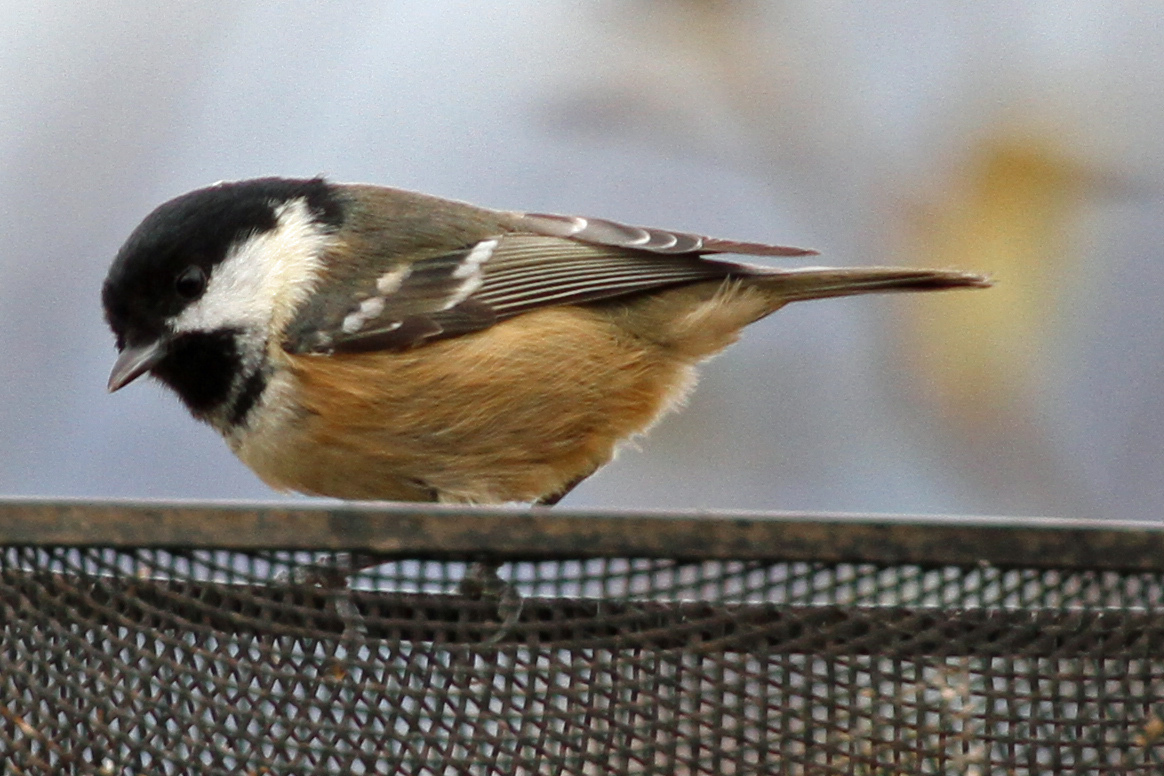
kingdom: Animalia
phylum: Chordata
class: Aves
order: Passeriformes
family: Paridae
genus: Periparus
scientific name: Periparus ater
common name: Coal tit
